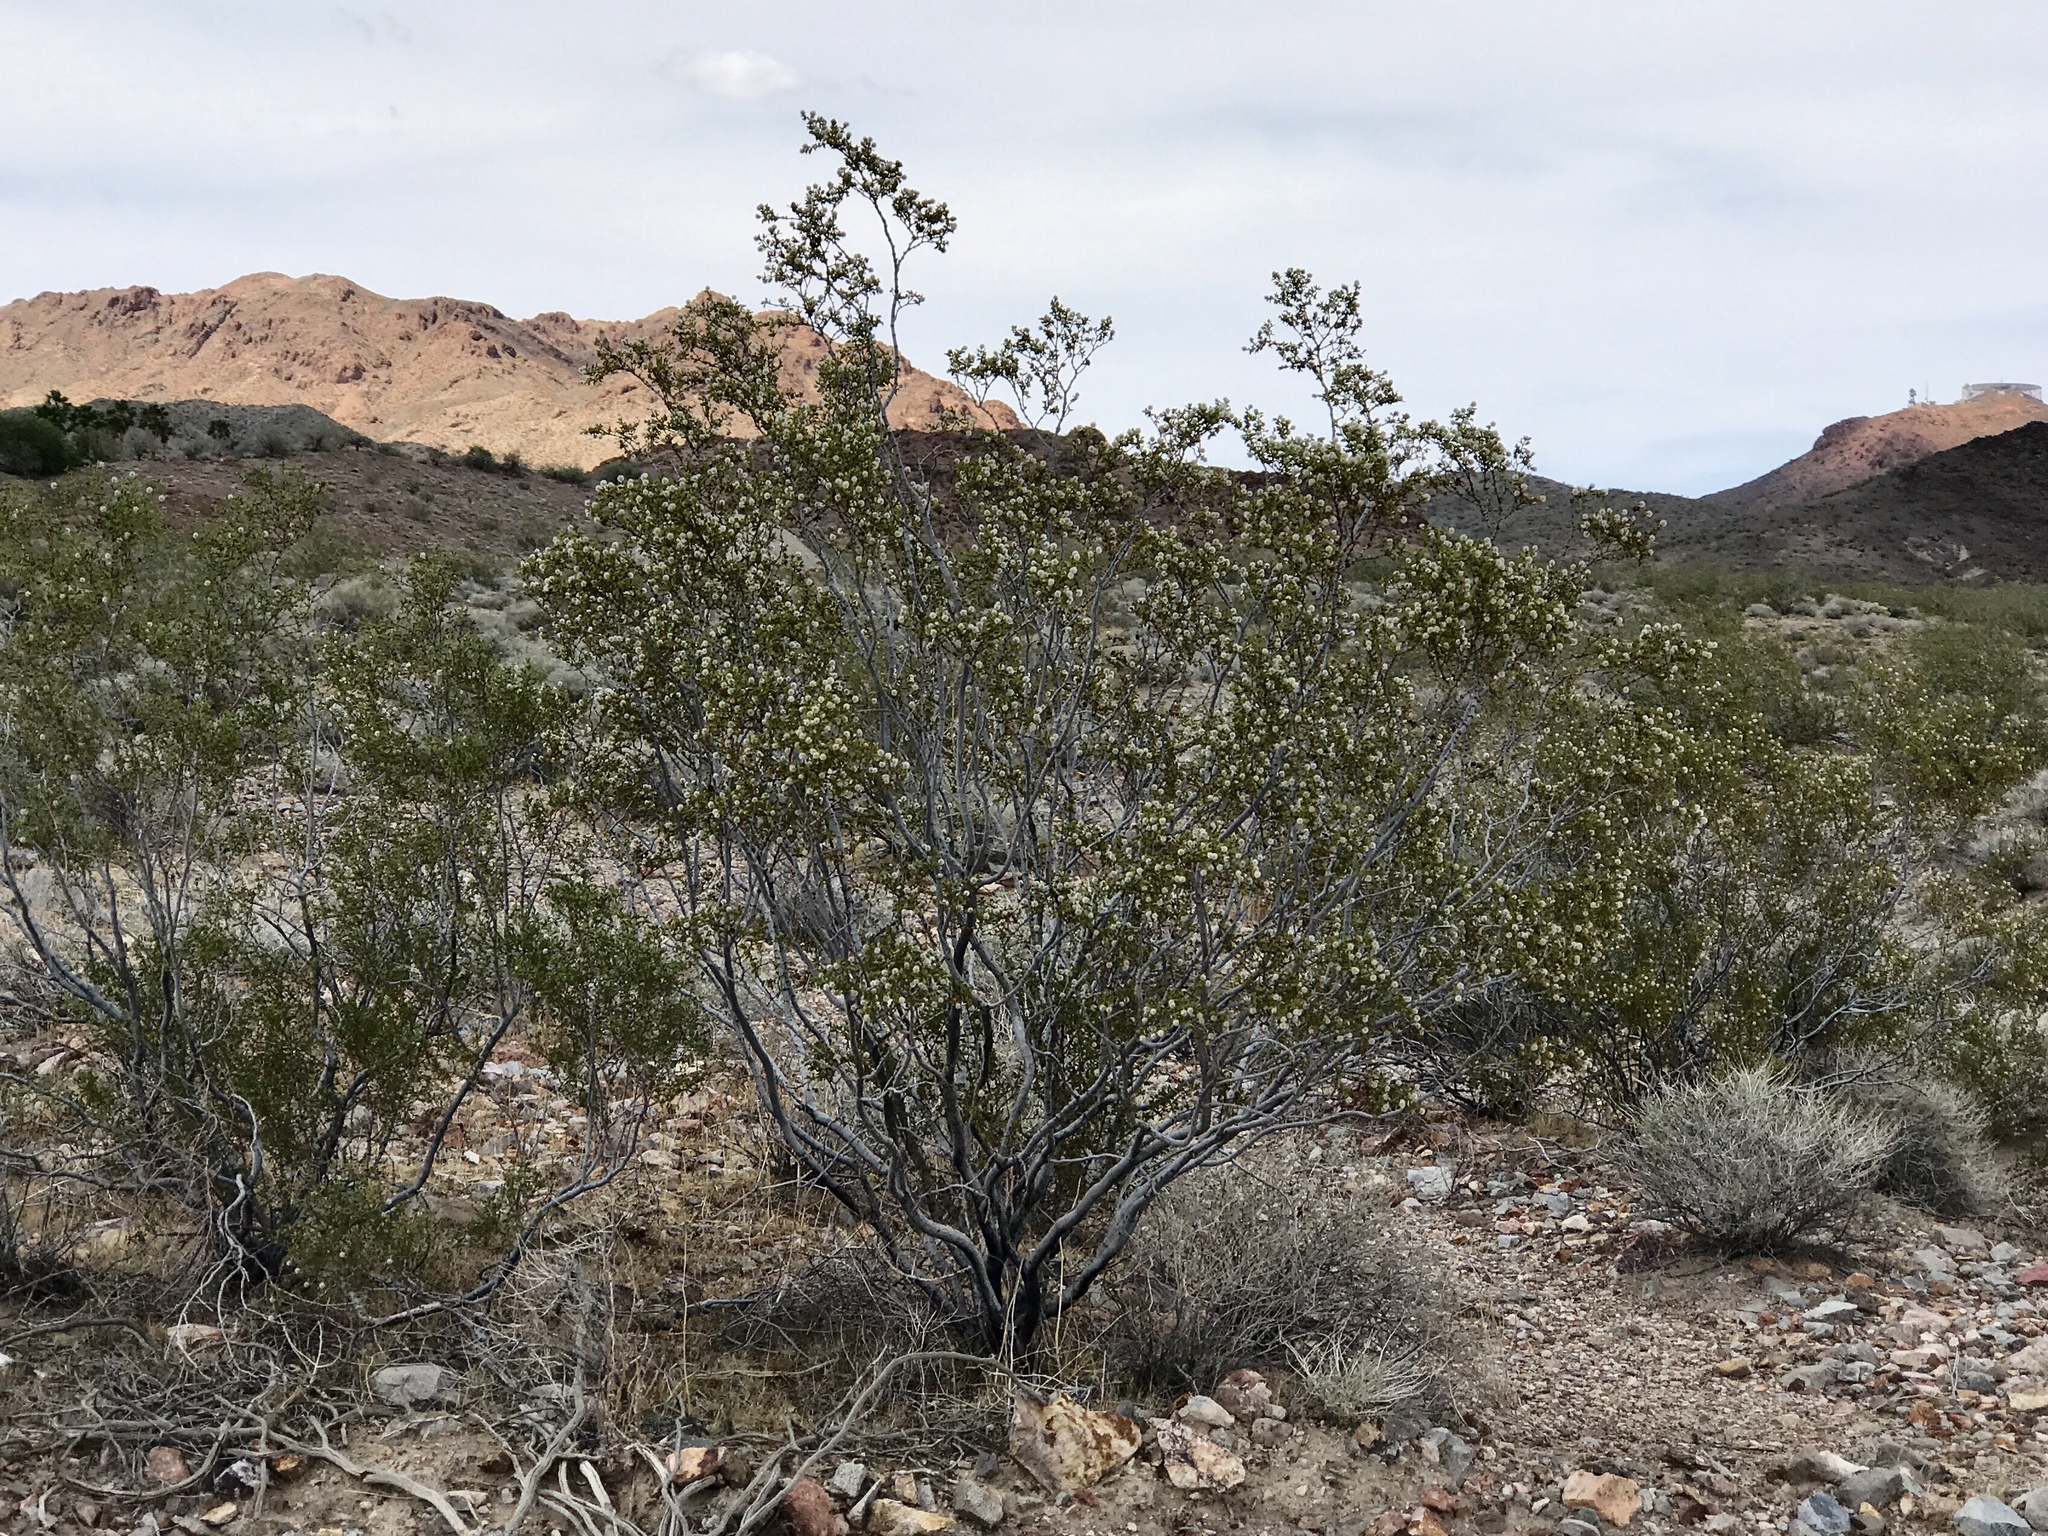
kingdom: Plantae
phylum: Tracheophyta
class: Magnoliopsida
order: Zygophyllales
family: Zygophyllaceae
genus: Larrea
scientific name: Larrea tridentata
